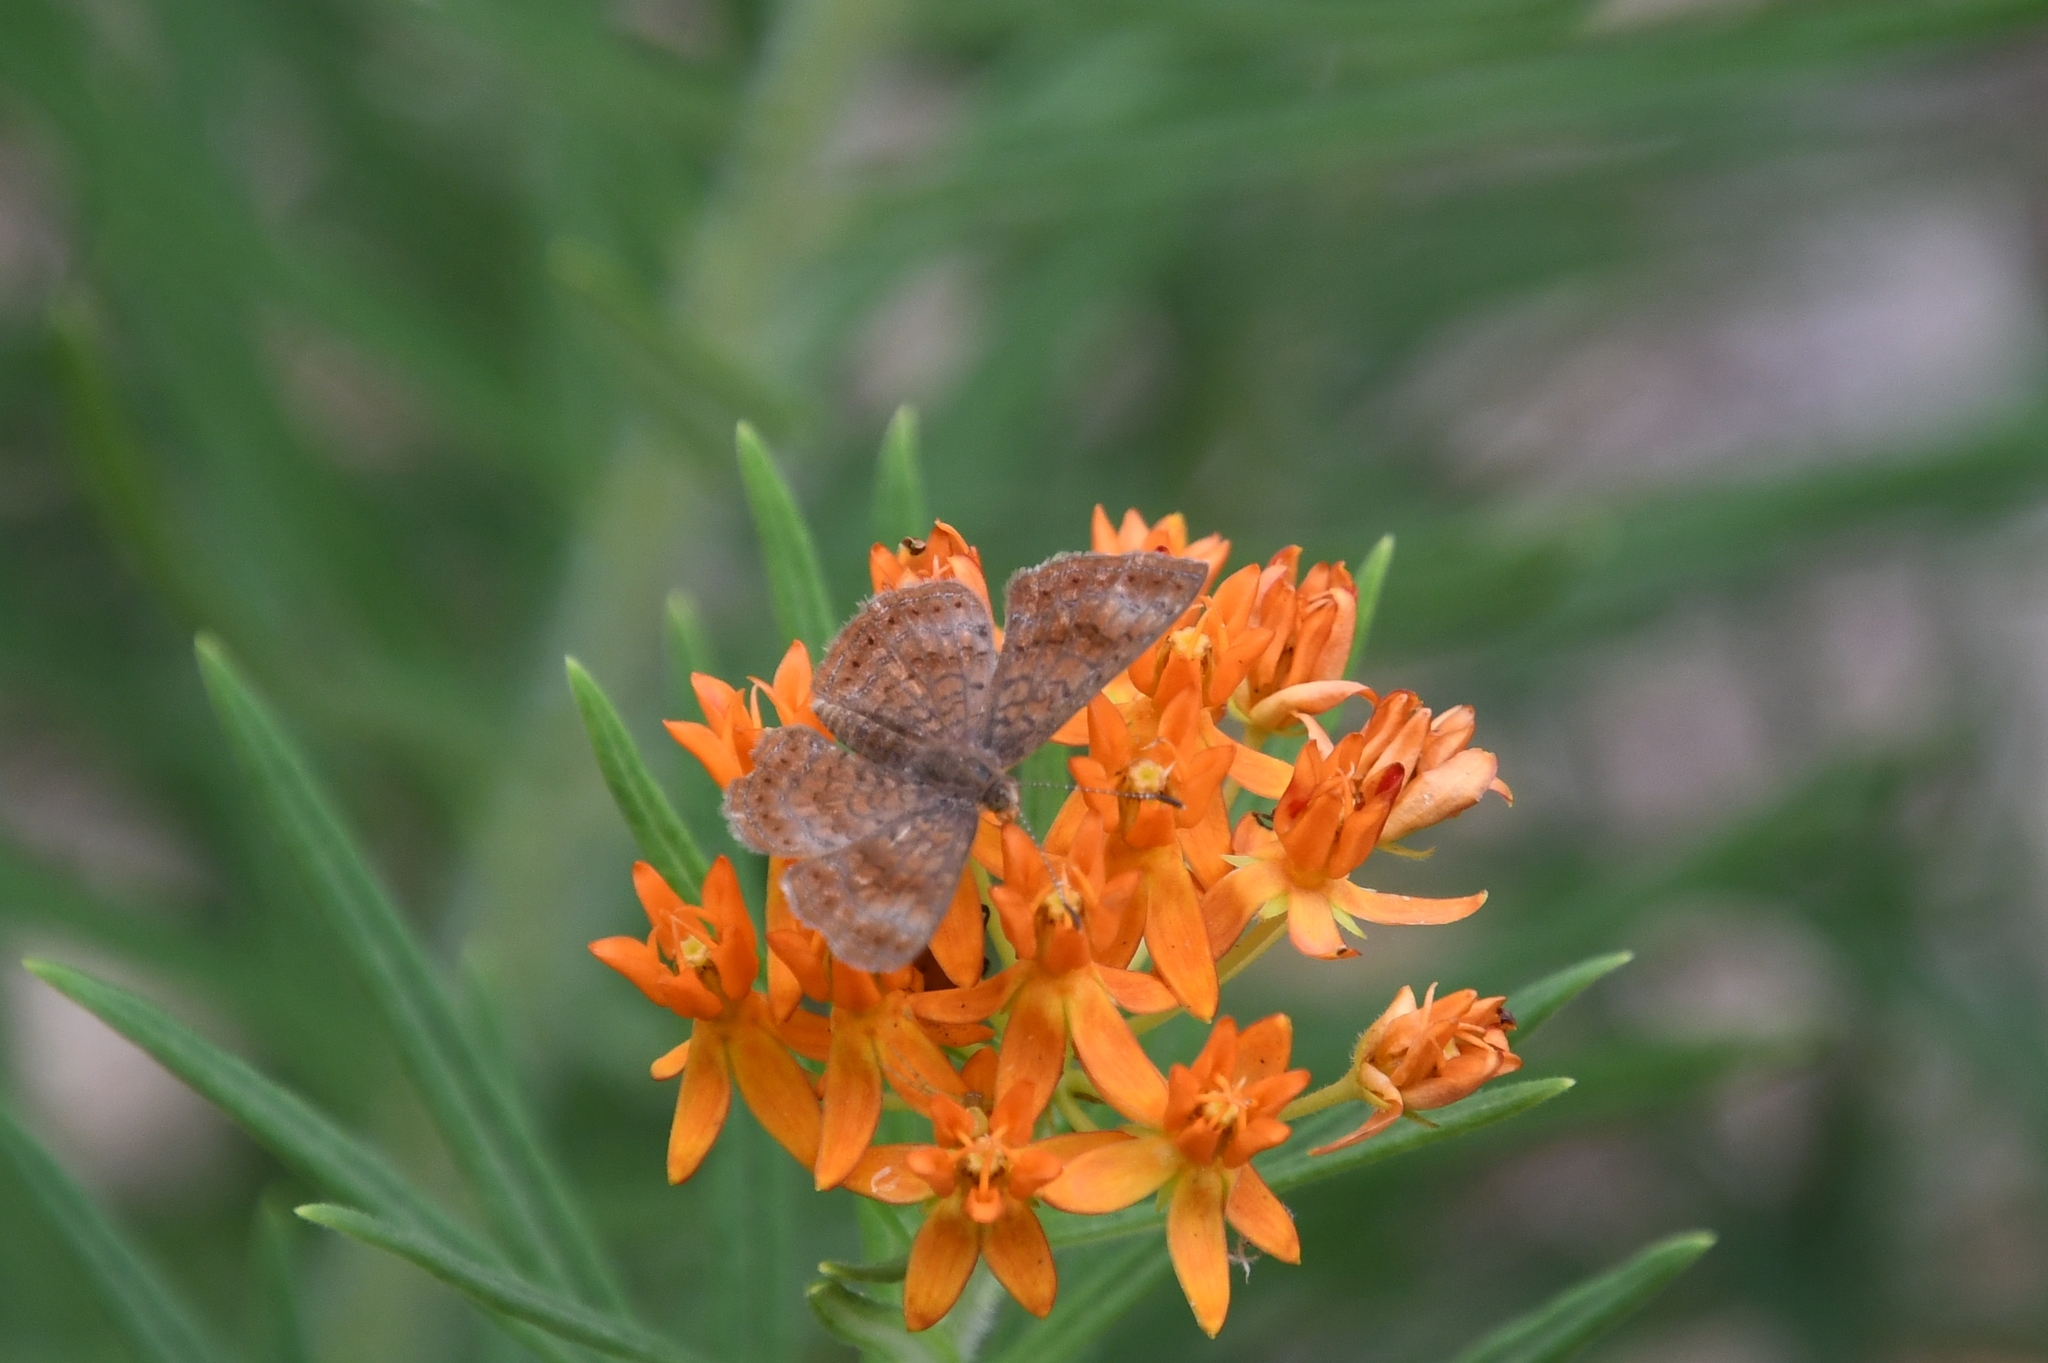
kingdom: Animalia
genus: Calephelis
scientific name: Calephelis arizonensis
